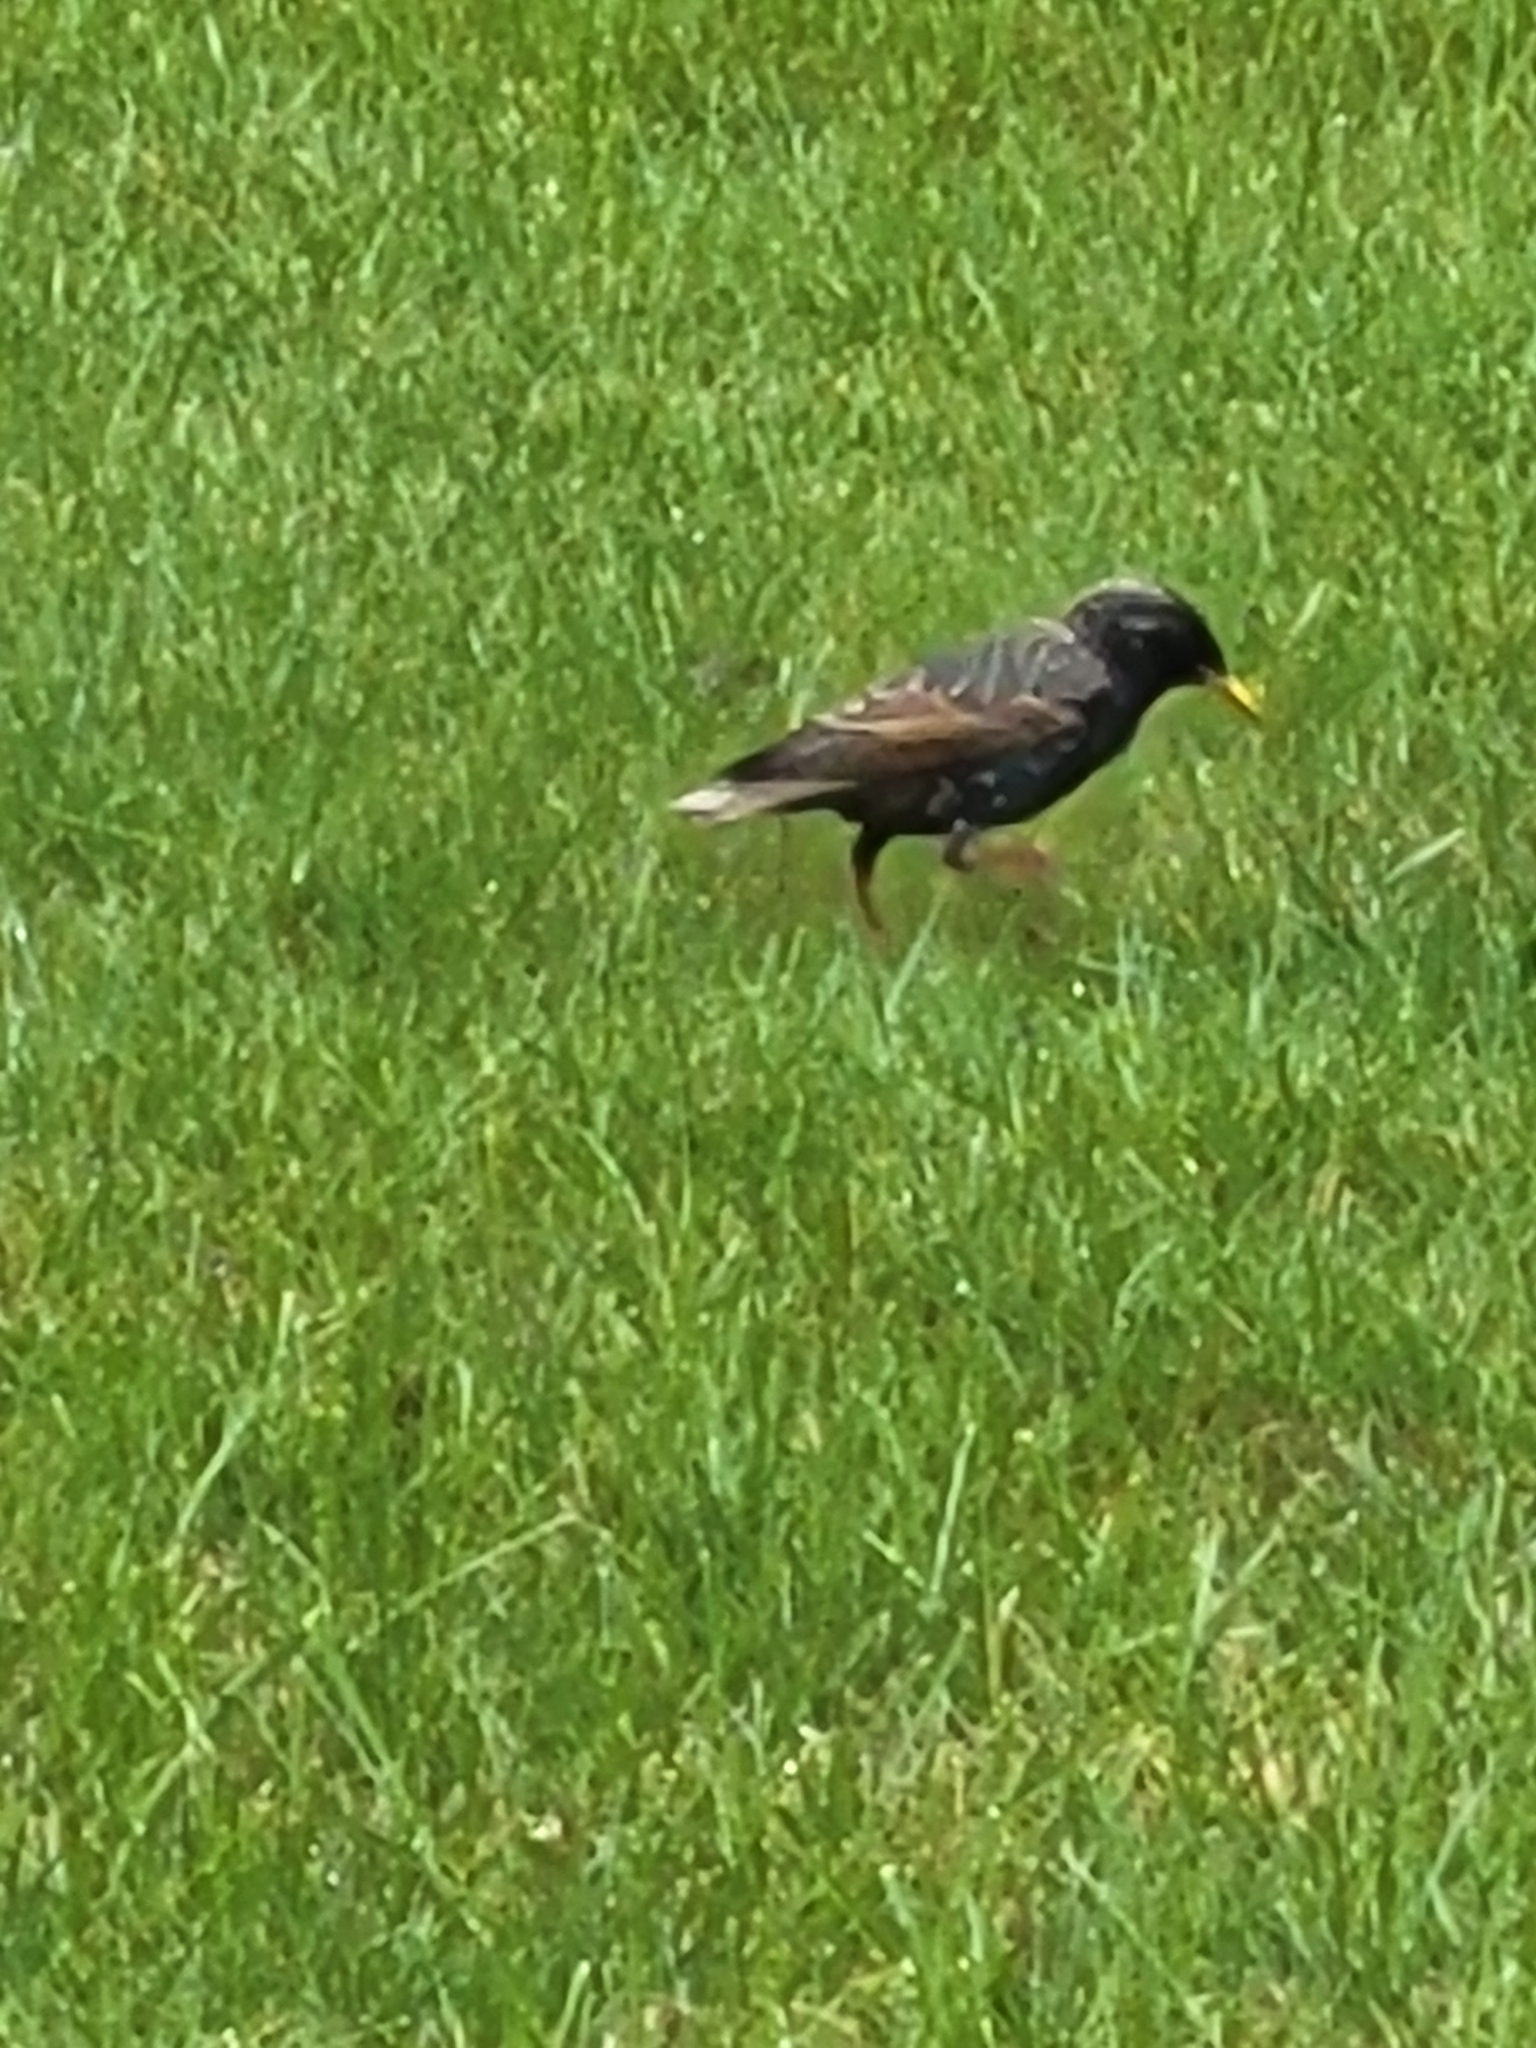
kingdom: Animalia
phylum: Chordata
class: Aves
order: Passeriformes
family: Sturnidae
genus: Sturnus
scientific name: Sturnus vulgaris
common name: Common starling
